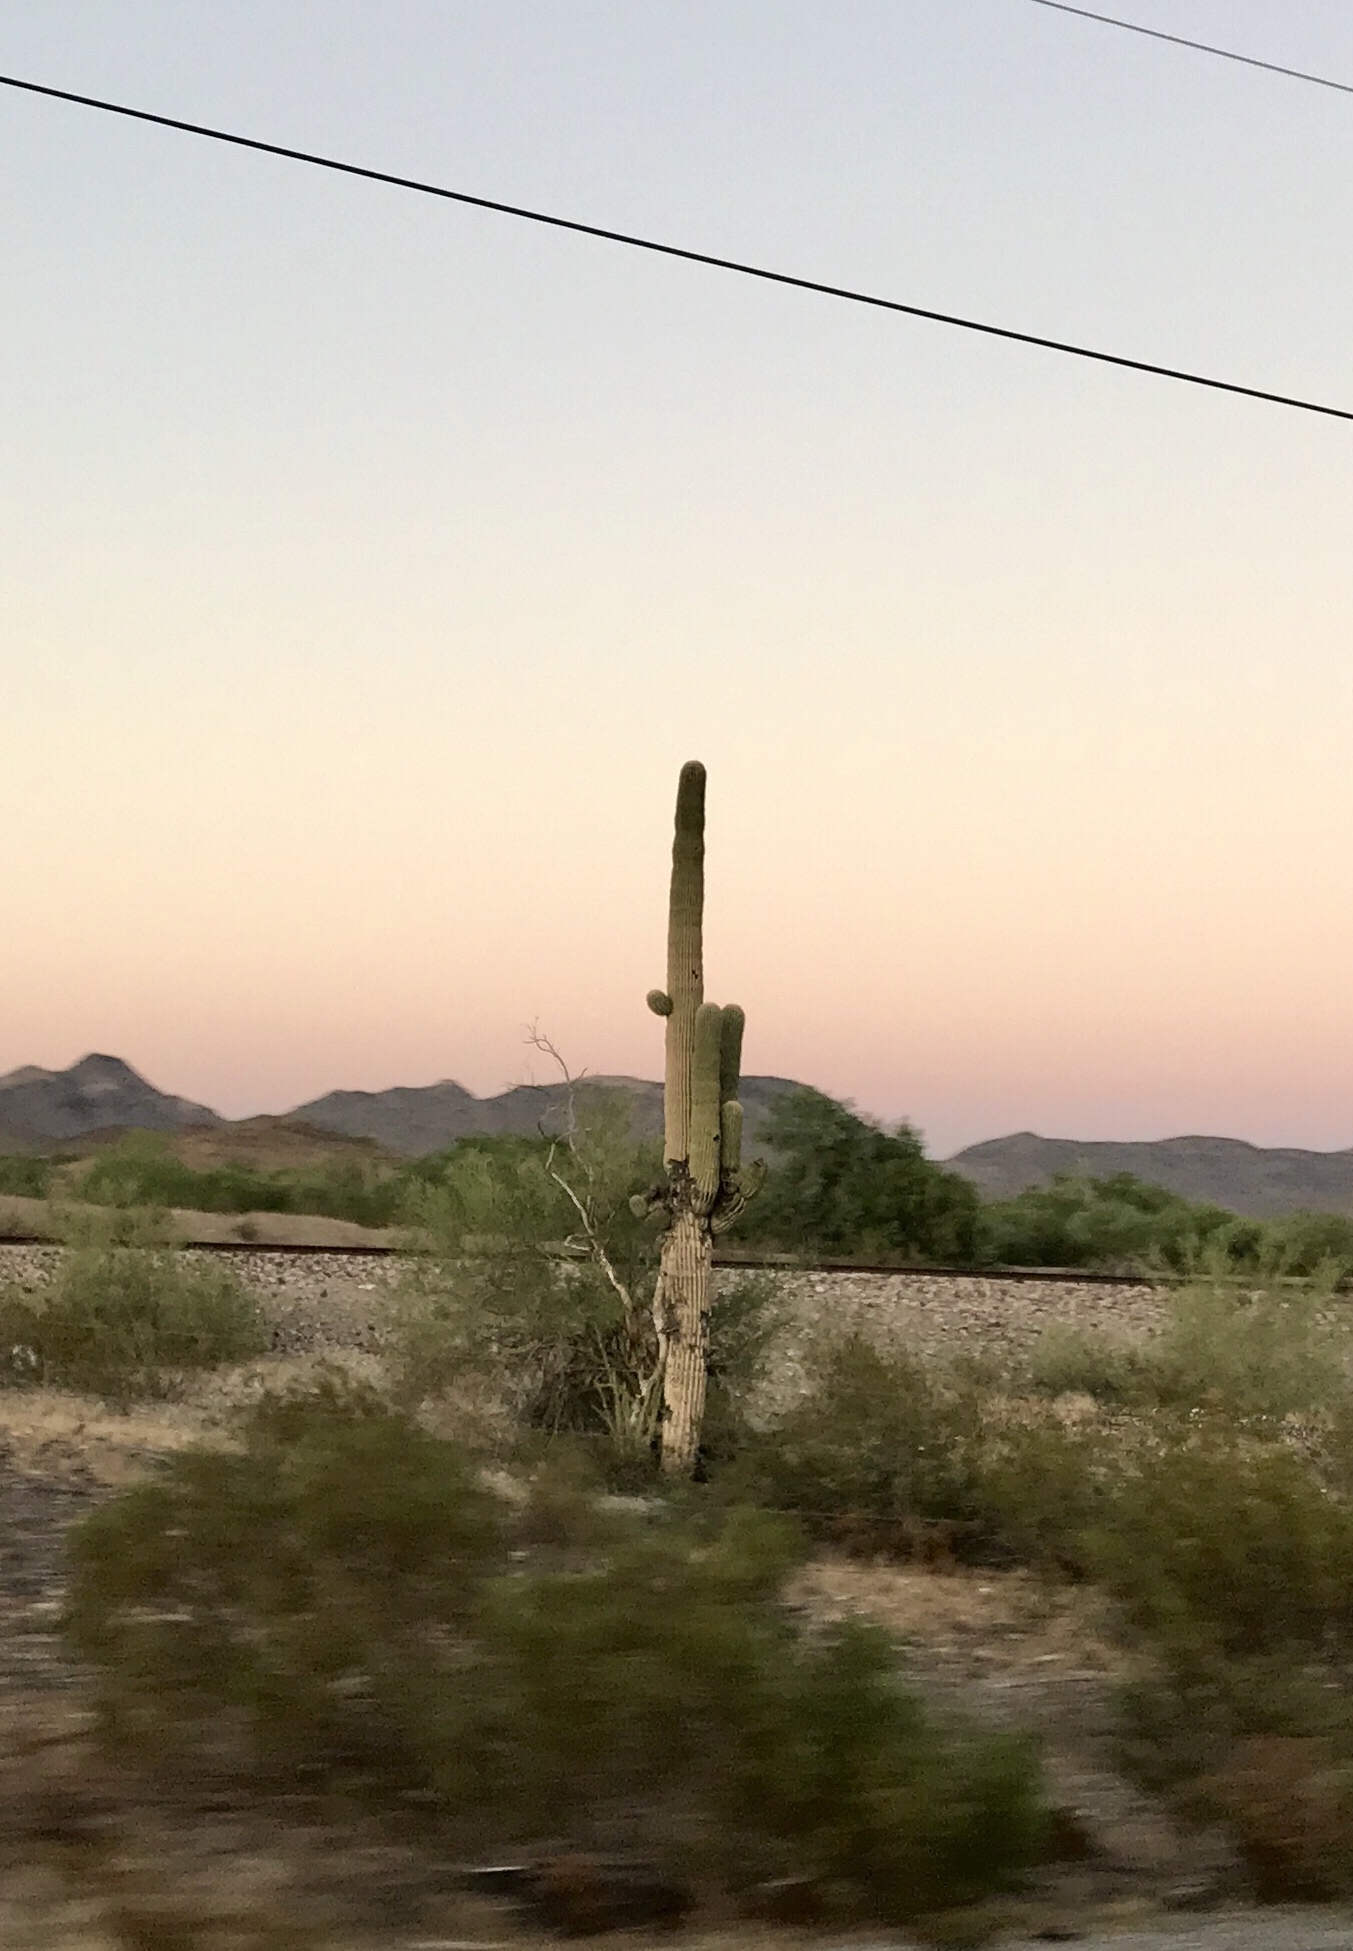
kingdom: Plantae
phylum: Tracheophyta
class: Magnoliopsida
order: Caryophyllales
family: Cactaceae
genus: Carnegiea
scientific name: Carnegiea gigantea
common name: Saguaro
